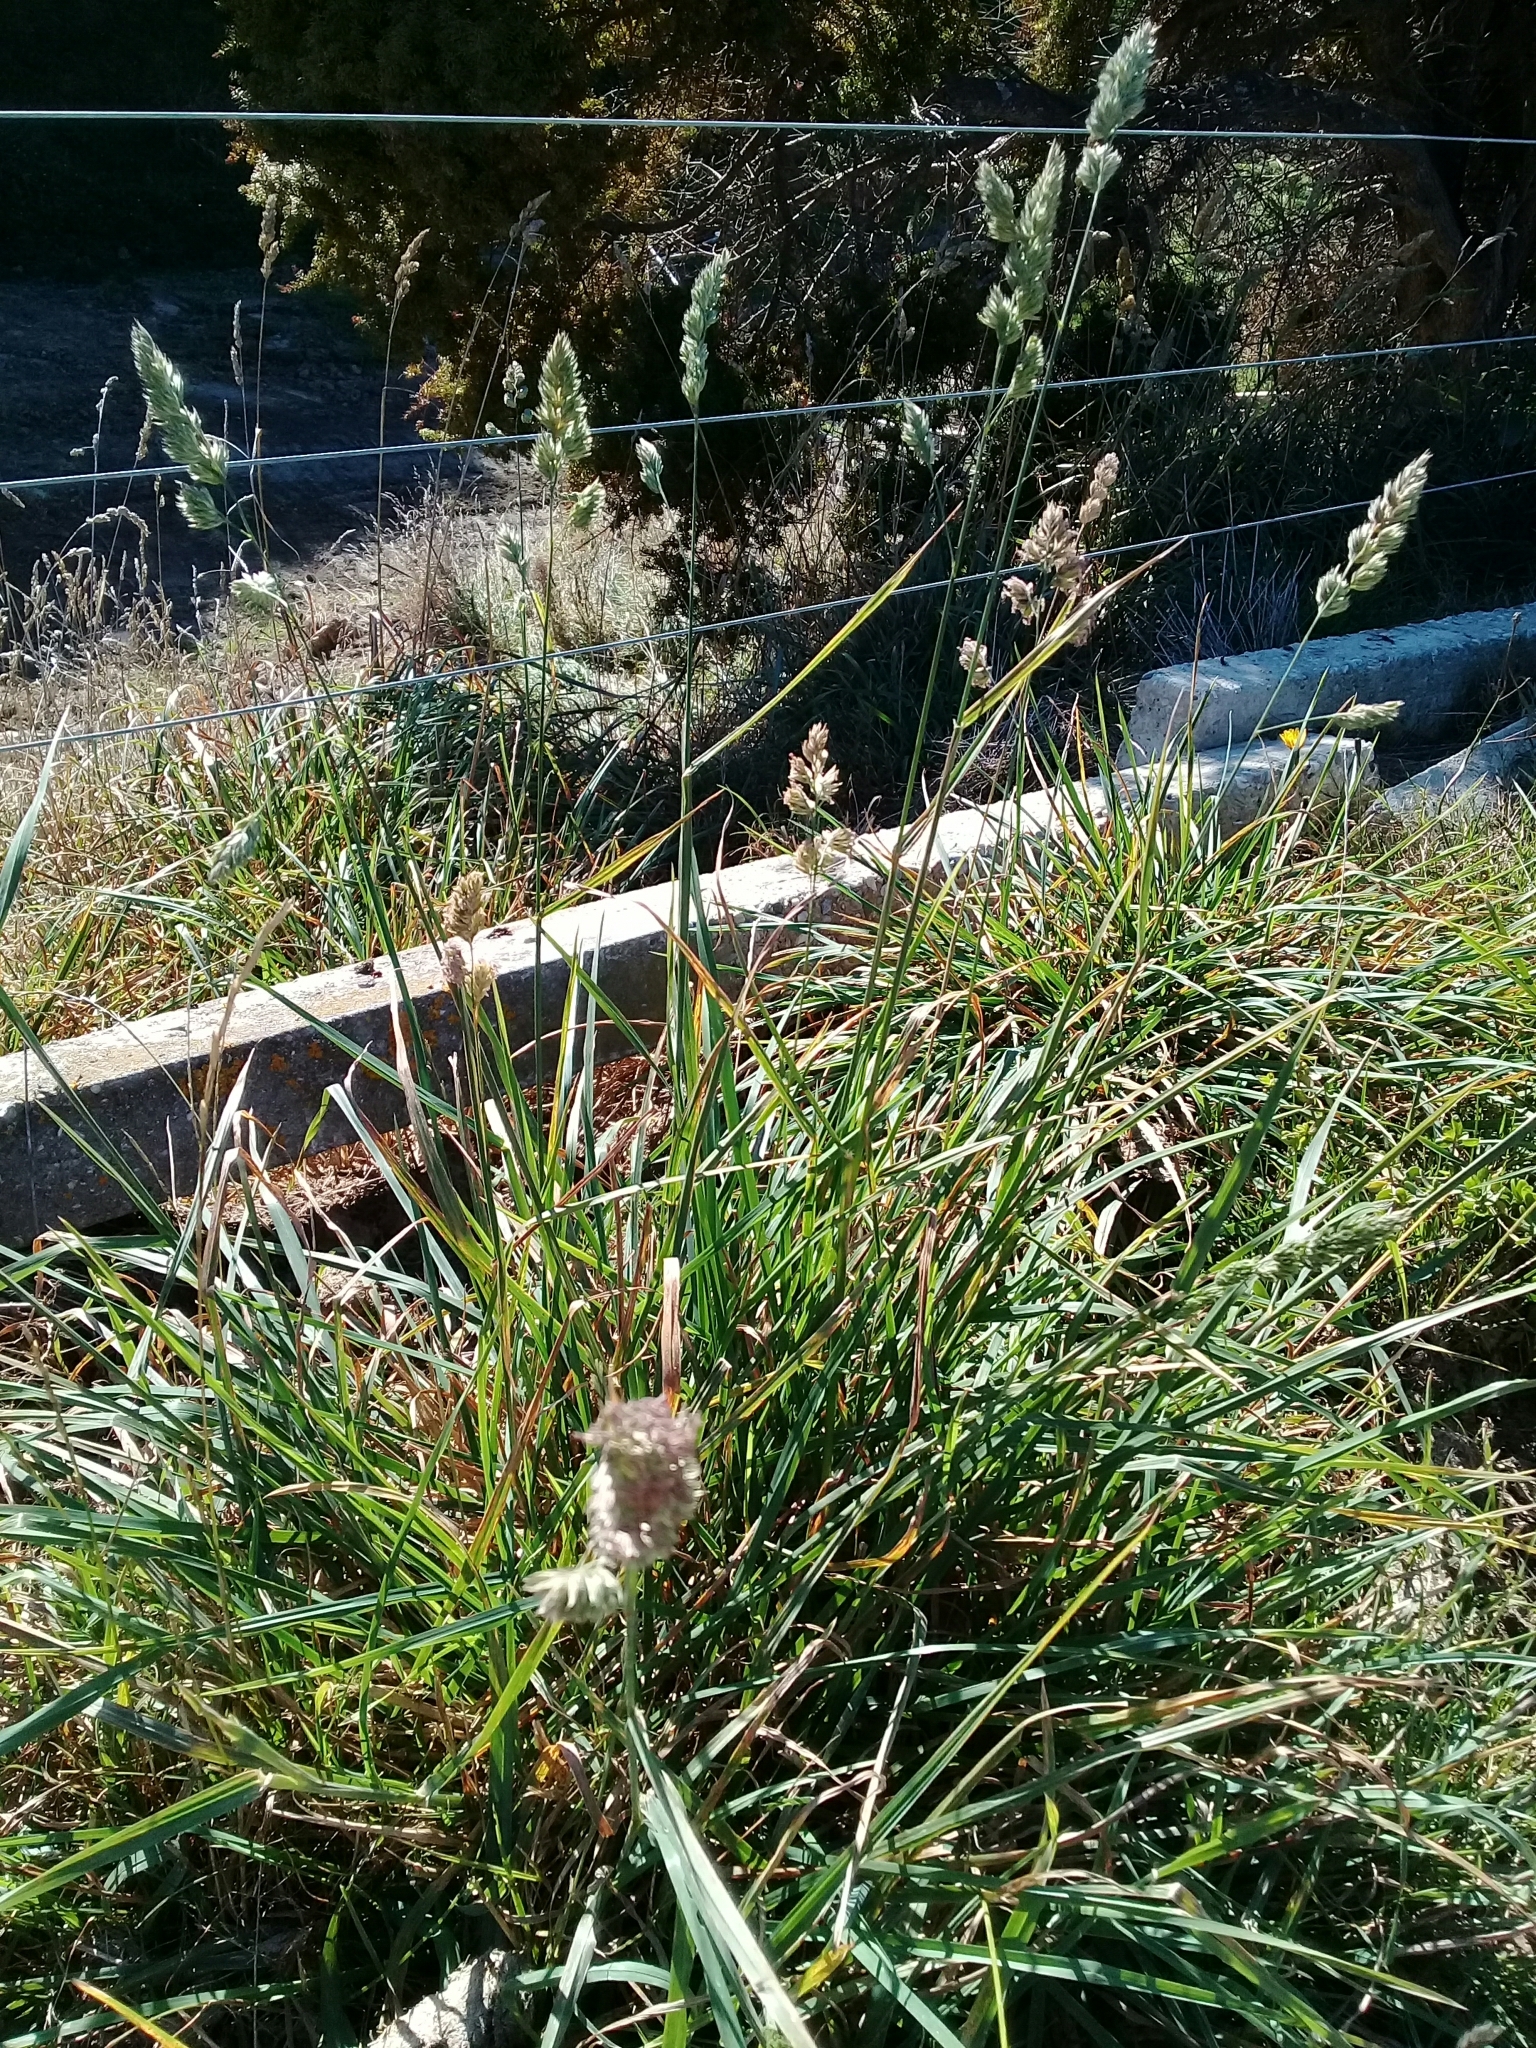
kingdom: Plantae
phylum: Tracheophyta
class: Liliopsida
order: Poales
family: Poaceae
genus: Dactylis
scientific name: Dactylis glomerata
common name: Orchardgrass
